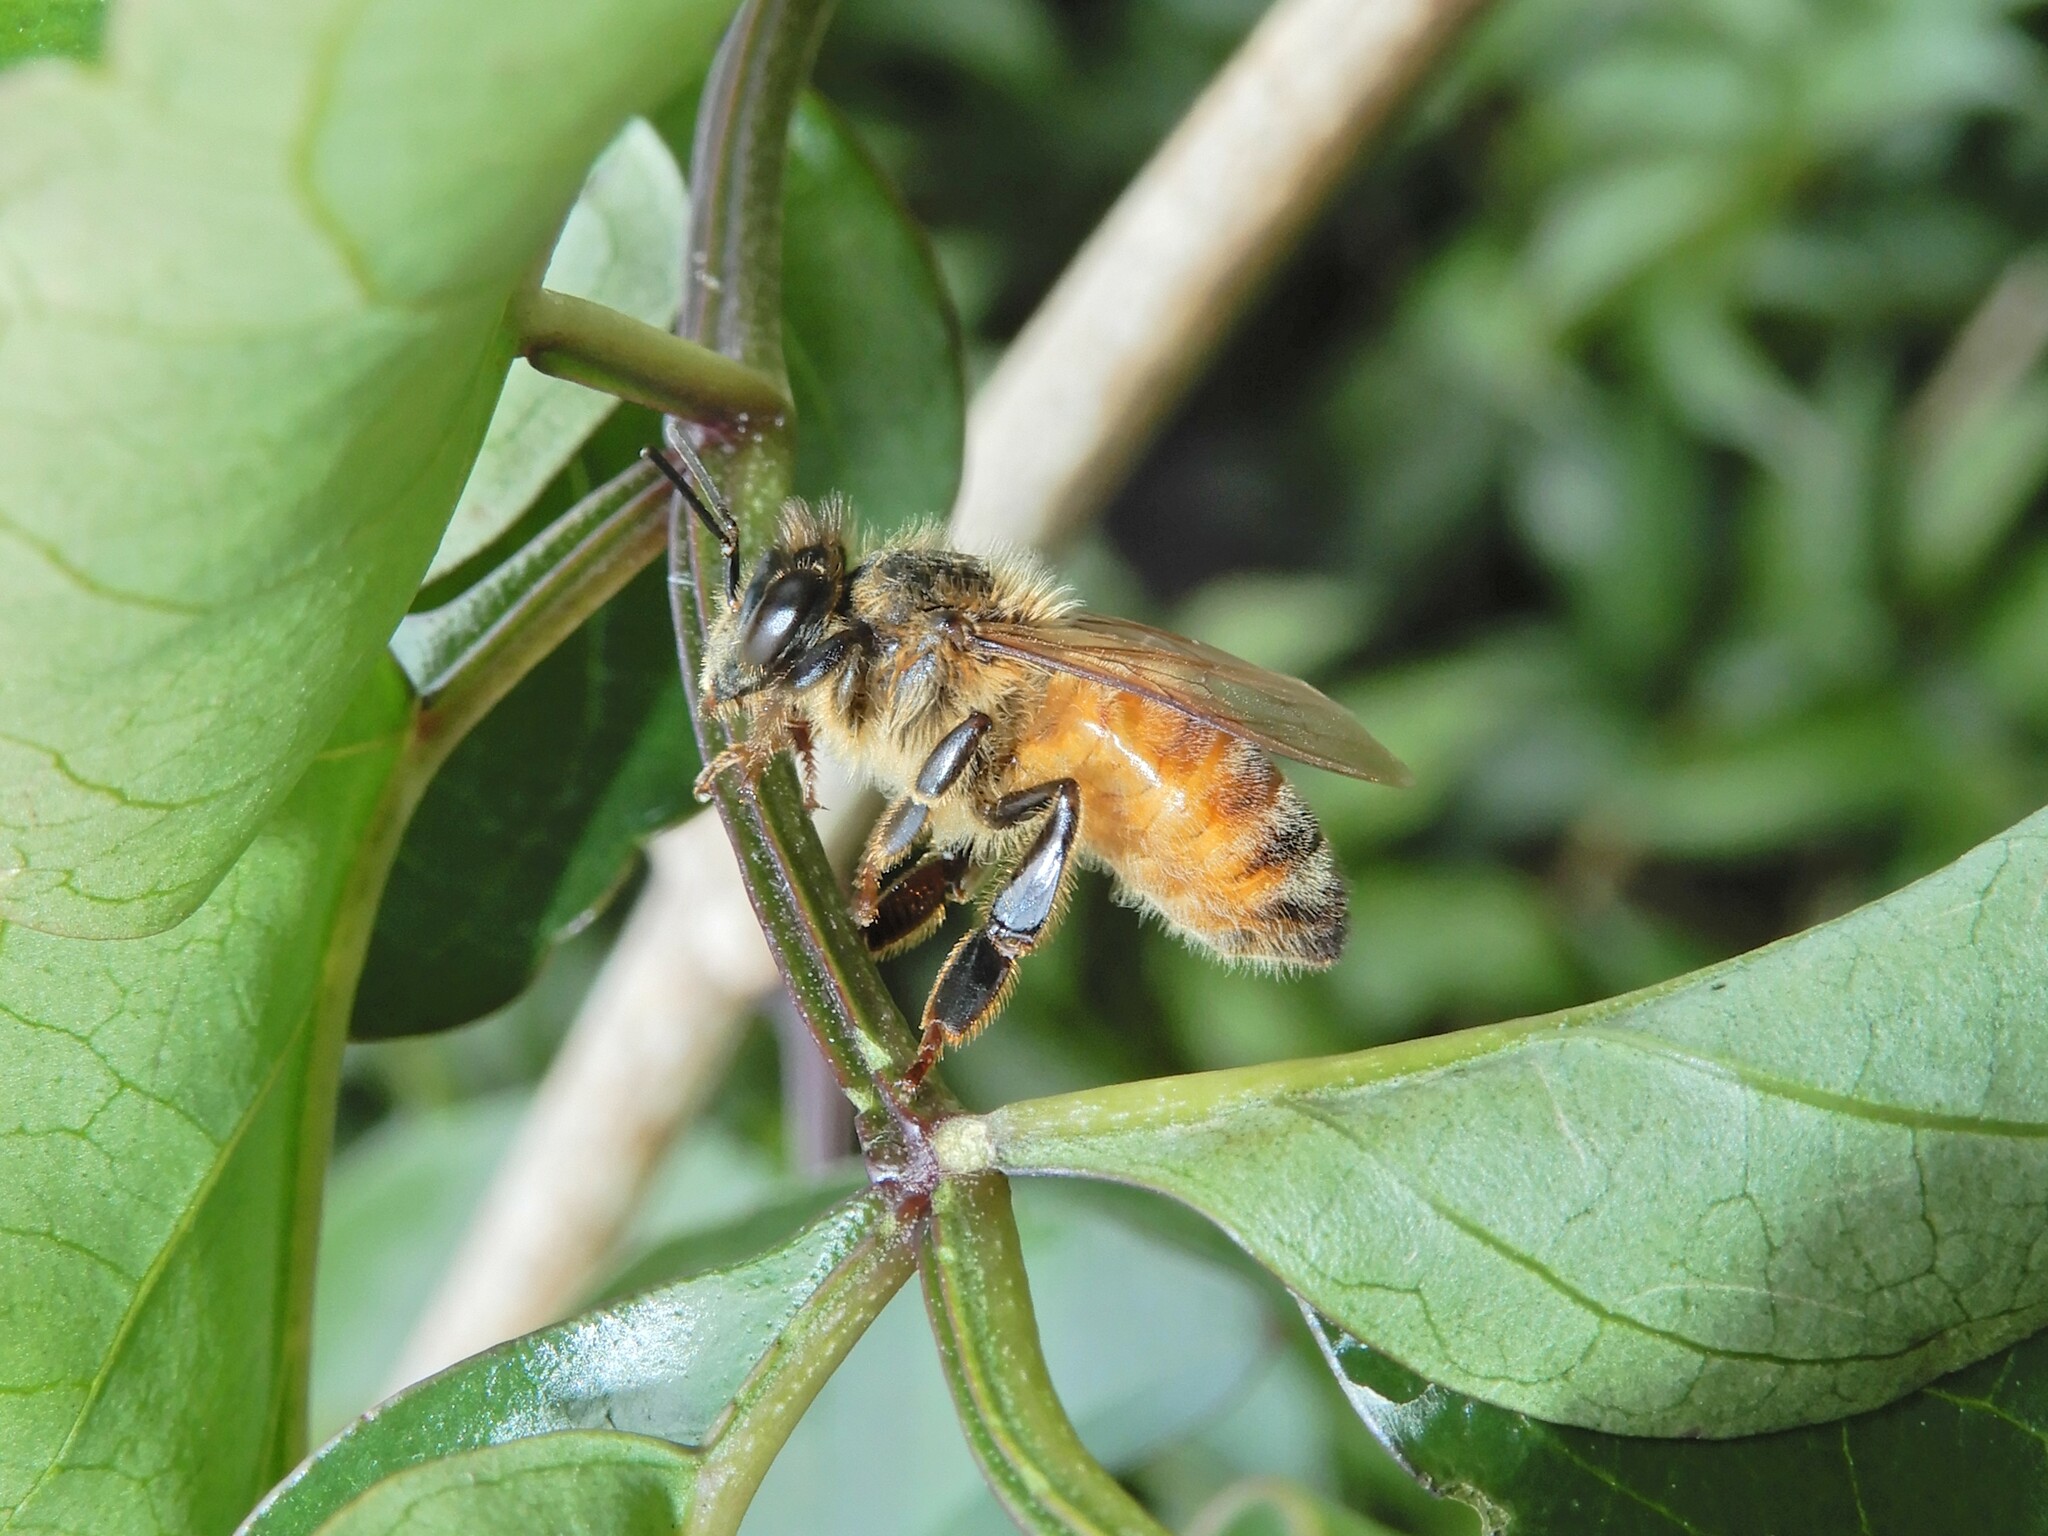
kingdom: Animalia
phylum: Arthropoda
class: Insecta
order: Hymenoptera
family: Apidae
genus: Apis
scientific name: Apis mellifera
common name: Honey bee
